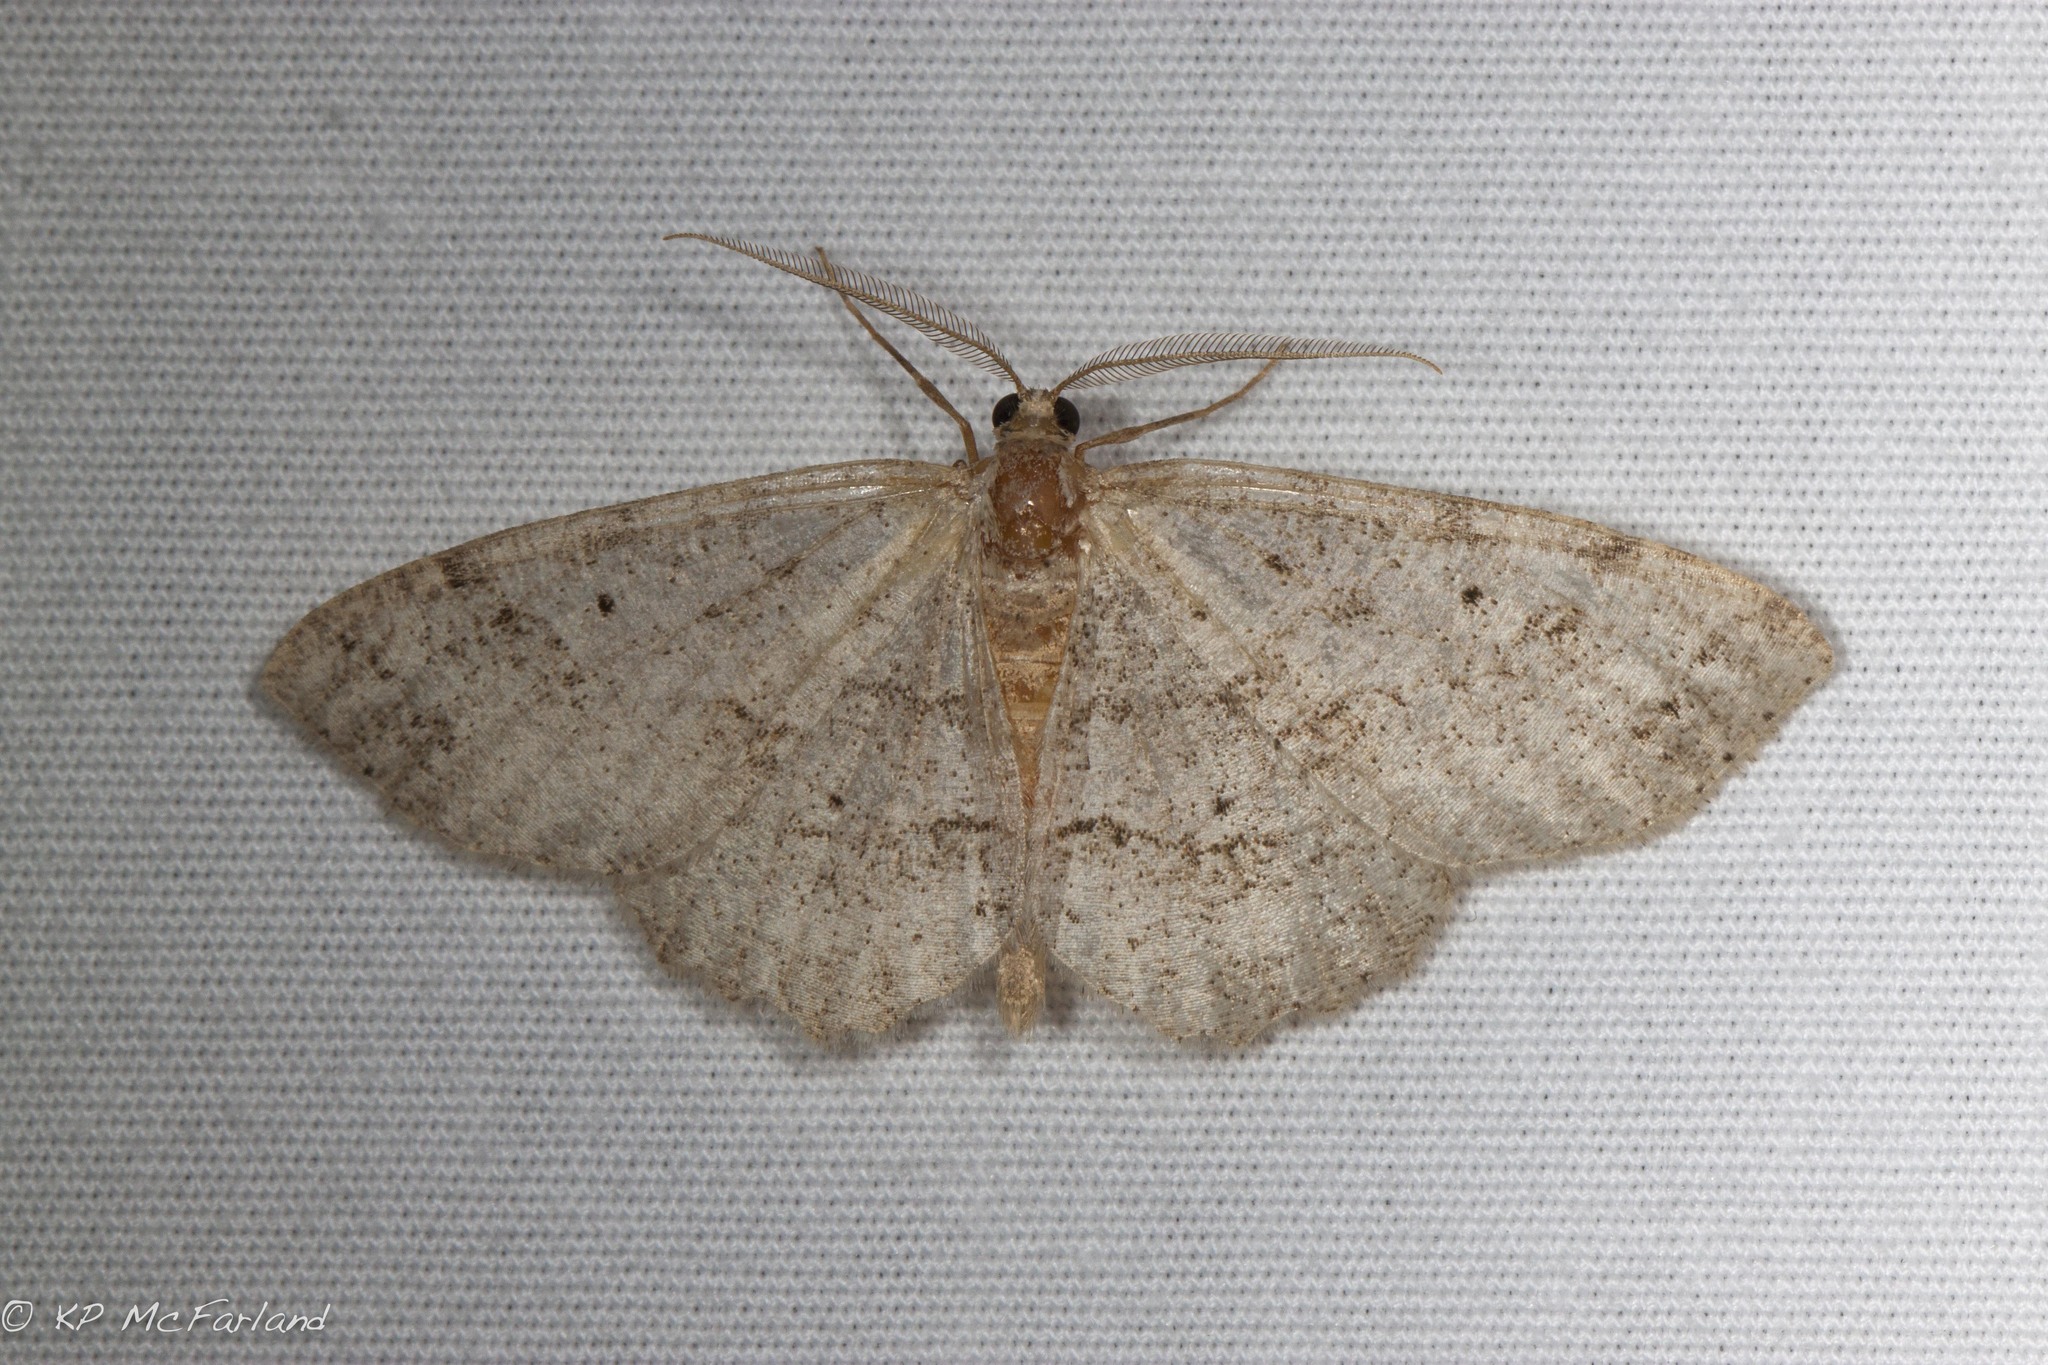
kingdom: Animalia
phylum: Arthropoda
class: Insecta
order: Lepidoptera
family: Geometridae
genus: Melanolophia
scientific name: Melanolophia signataria
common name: Signate melanolophia
